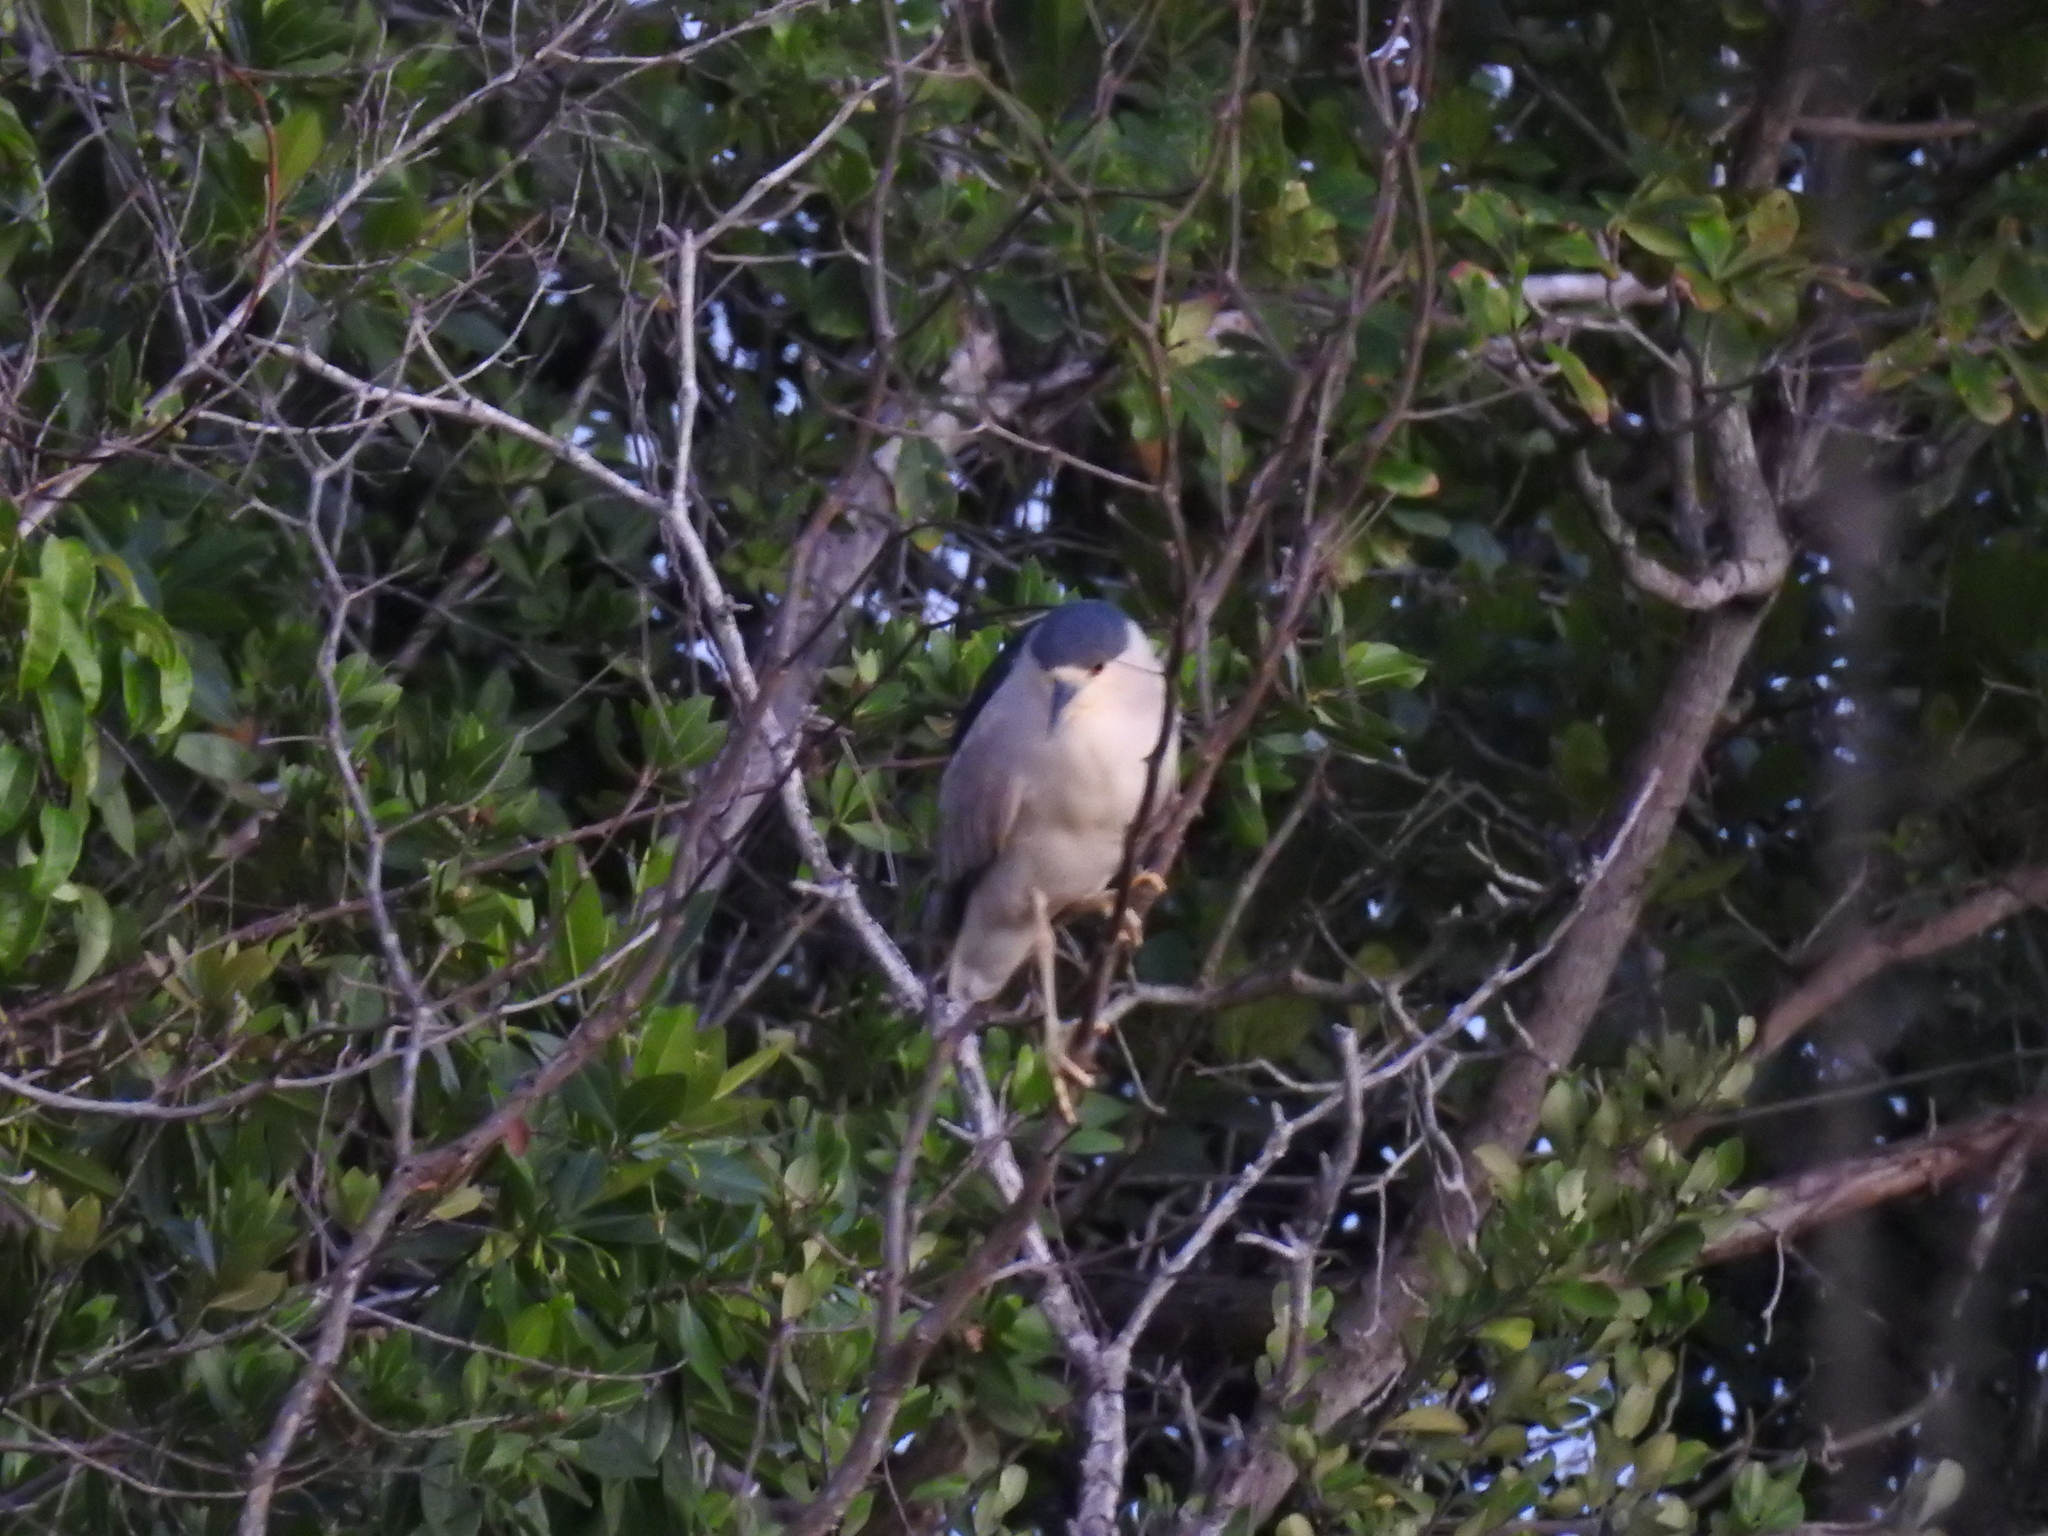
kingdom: Animalia
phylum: Chordata
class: Aves
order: Pelecaniformes
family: Ardeidae
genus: Nycticorax
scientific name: Nycticorax nycticorax
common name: Black-crowned night heron
